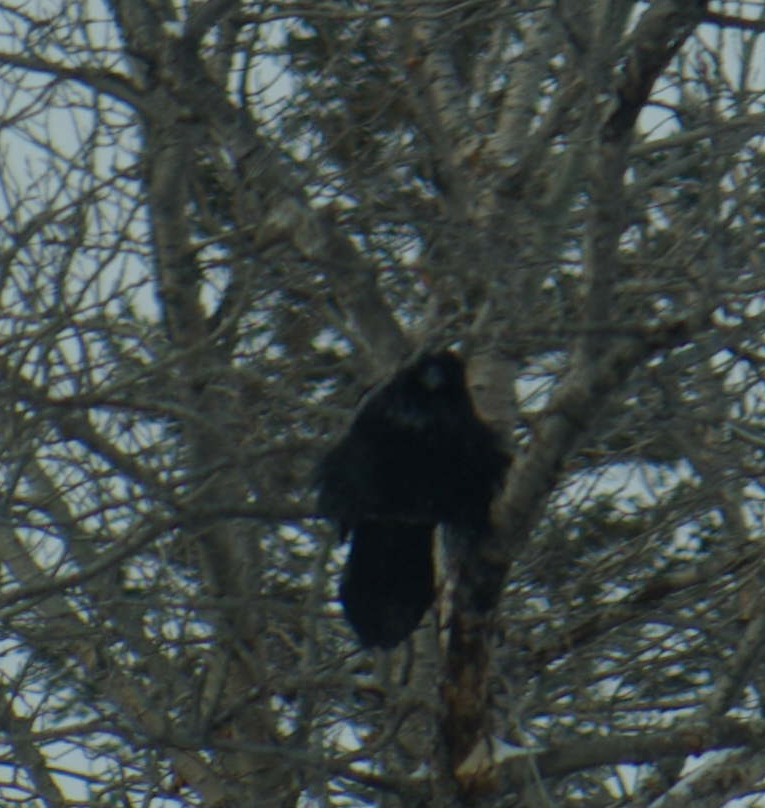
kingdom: Animalia
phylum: Chordata
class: Aves
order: Passeriformes
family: Corvidae
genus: Corvus
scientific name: Corvus corax
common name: Common raven
